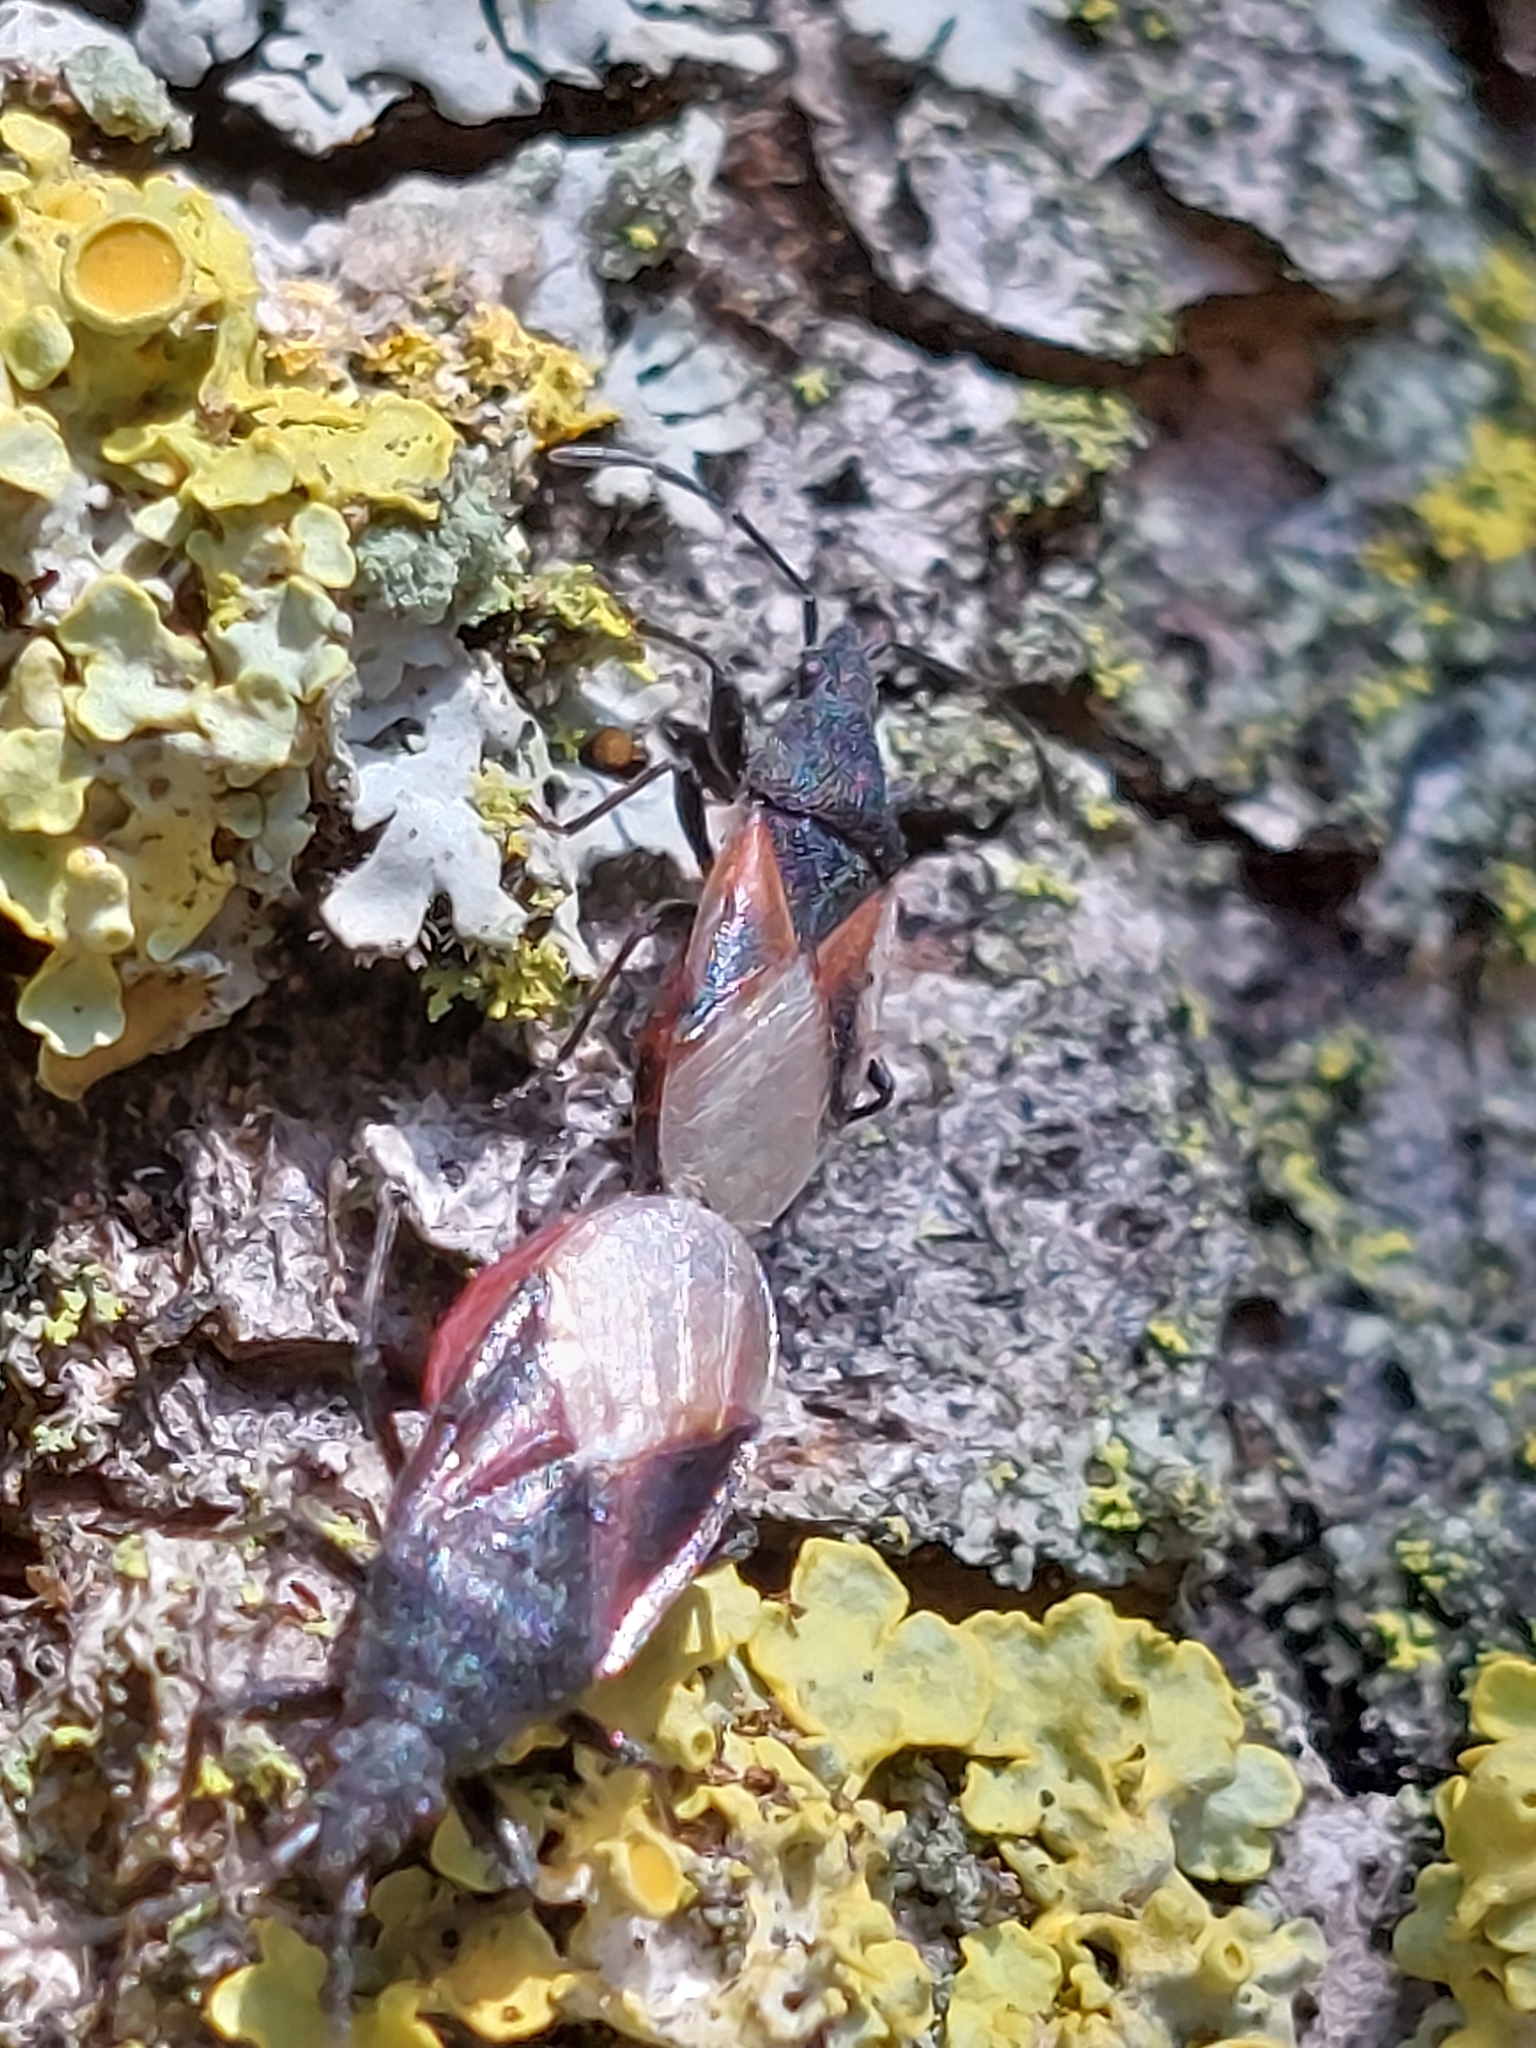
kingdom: Animalia
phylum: Arthropoda
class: Insecta
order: Hemiptera
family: Oxycarenidae
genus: Oxycarenus
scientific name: Oxycarenus lavaterae
